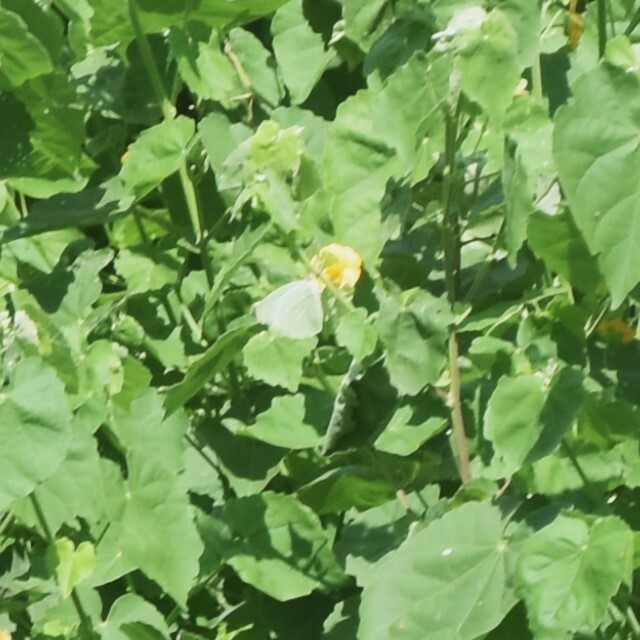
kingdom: Animalia
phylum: Arthropoda
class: Insecta
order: Lepidoptera
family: Pieridae
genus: Catopsilia
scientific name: Catopsilia pomona
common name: Common emigrant
